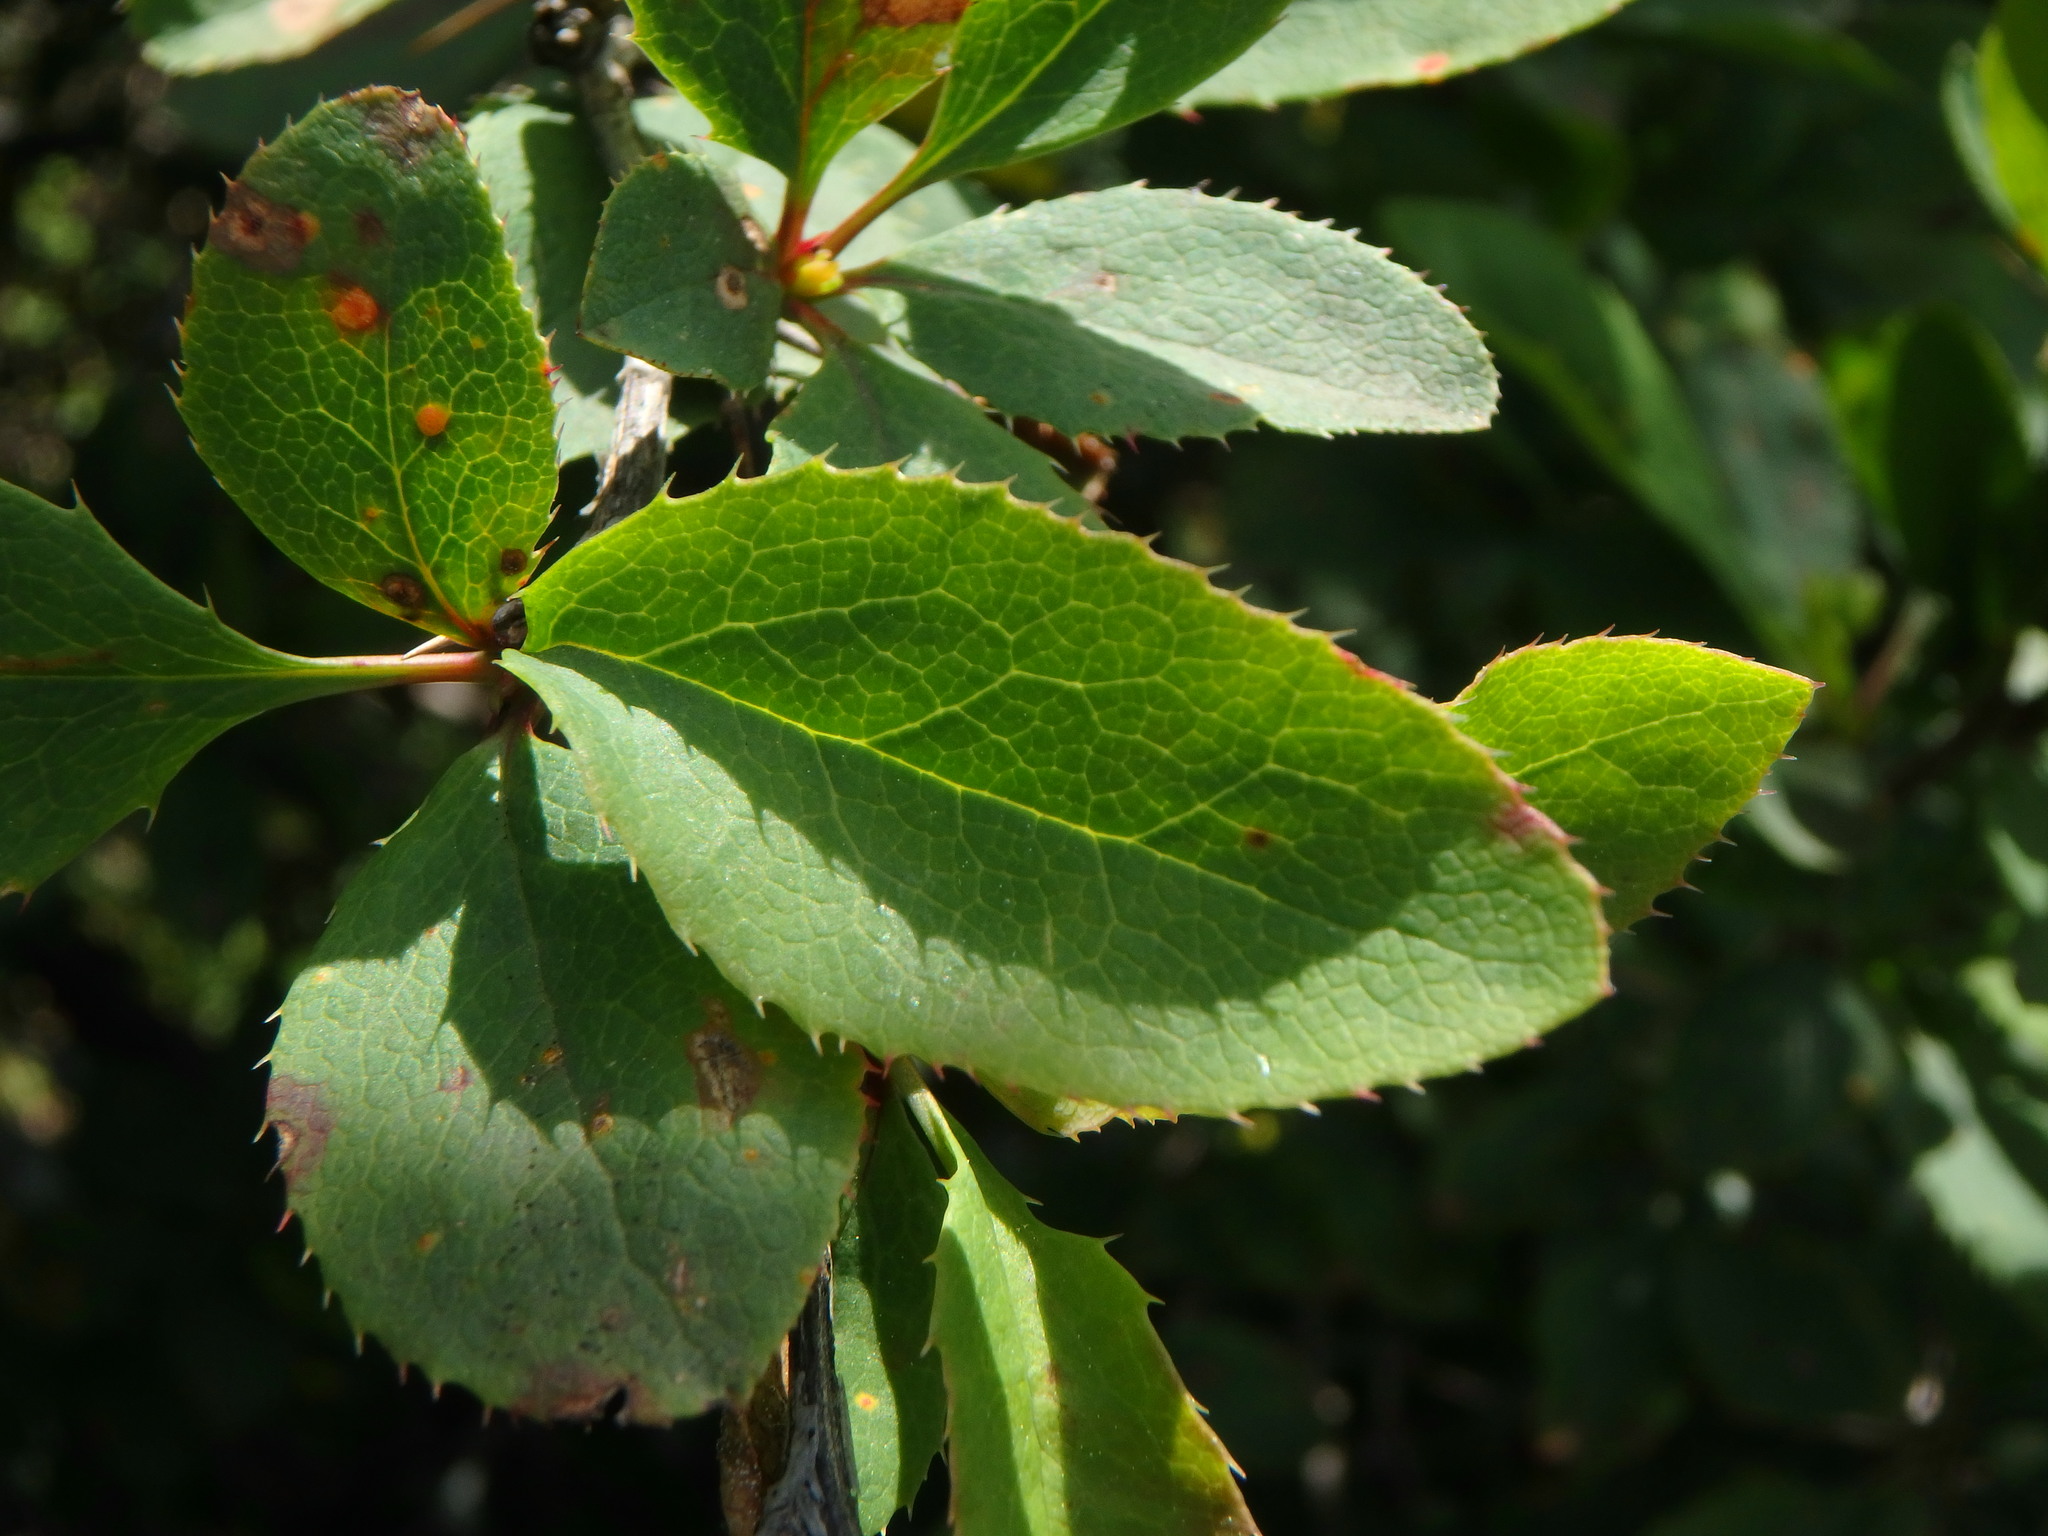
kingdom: Plantae
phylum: Tracheophyta
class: Magnoliopsida
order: Ranunculales
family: Berberidaceae
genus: Berberis
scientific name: Berberis vulgaris
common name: Barberry
